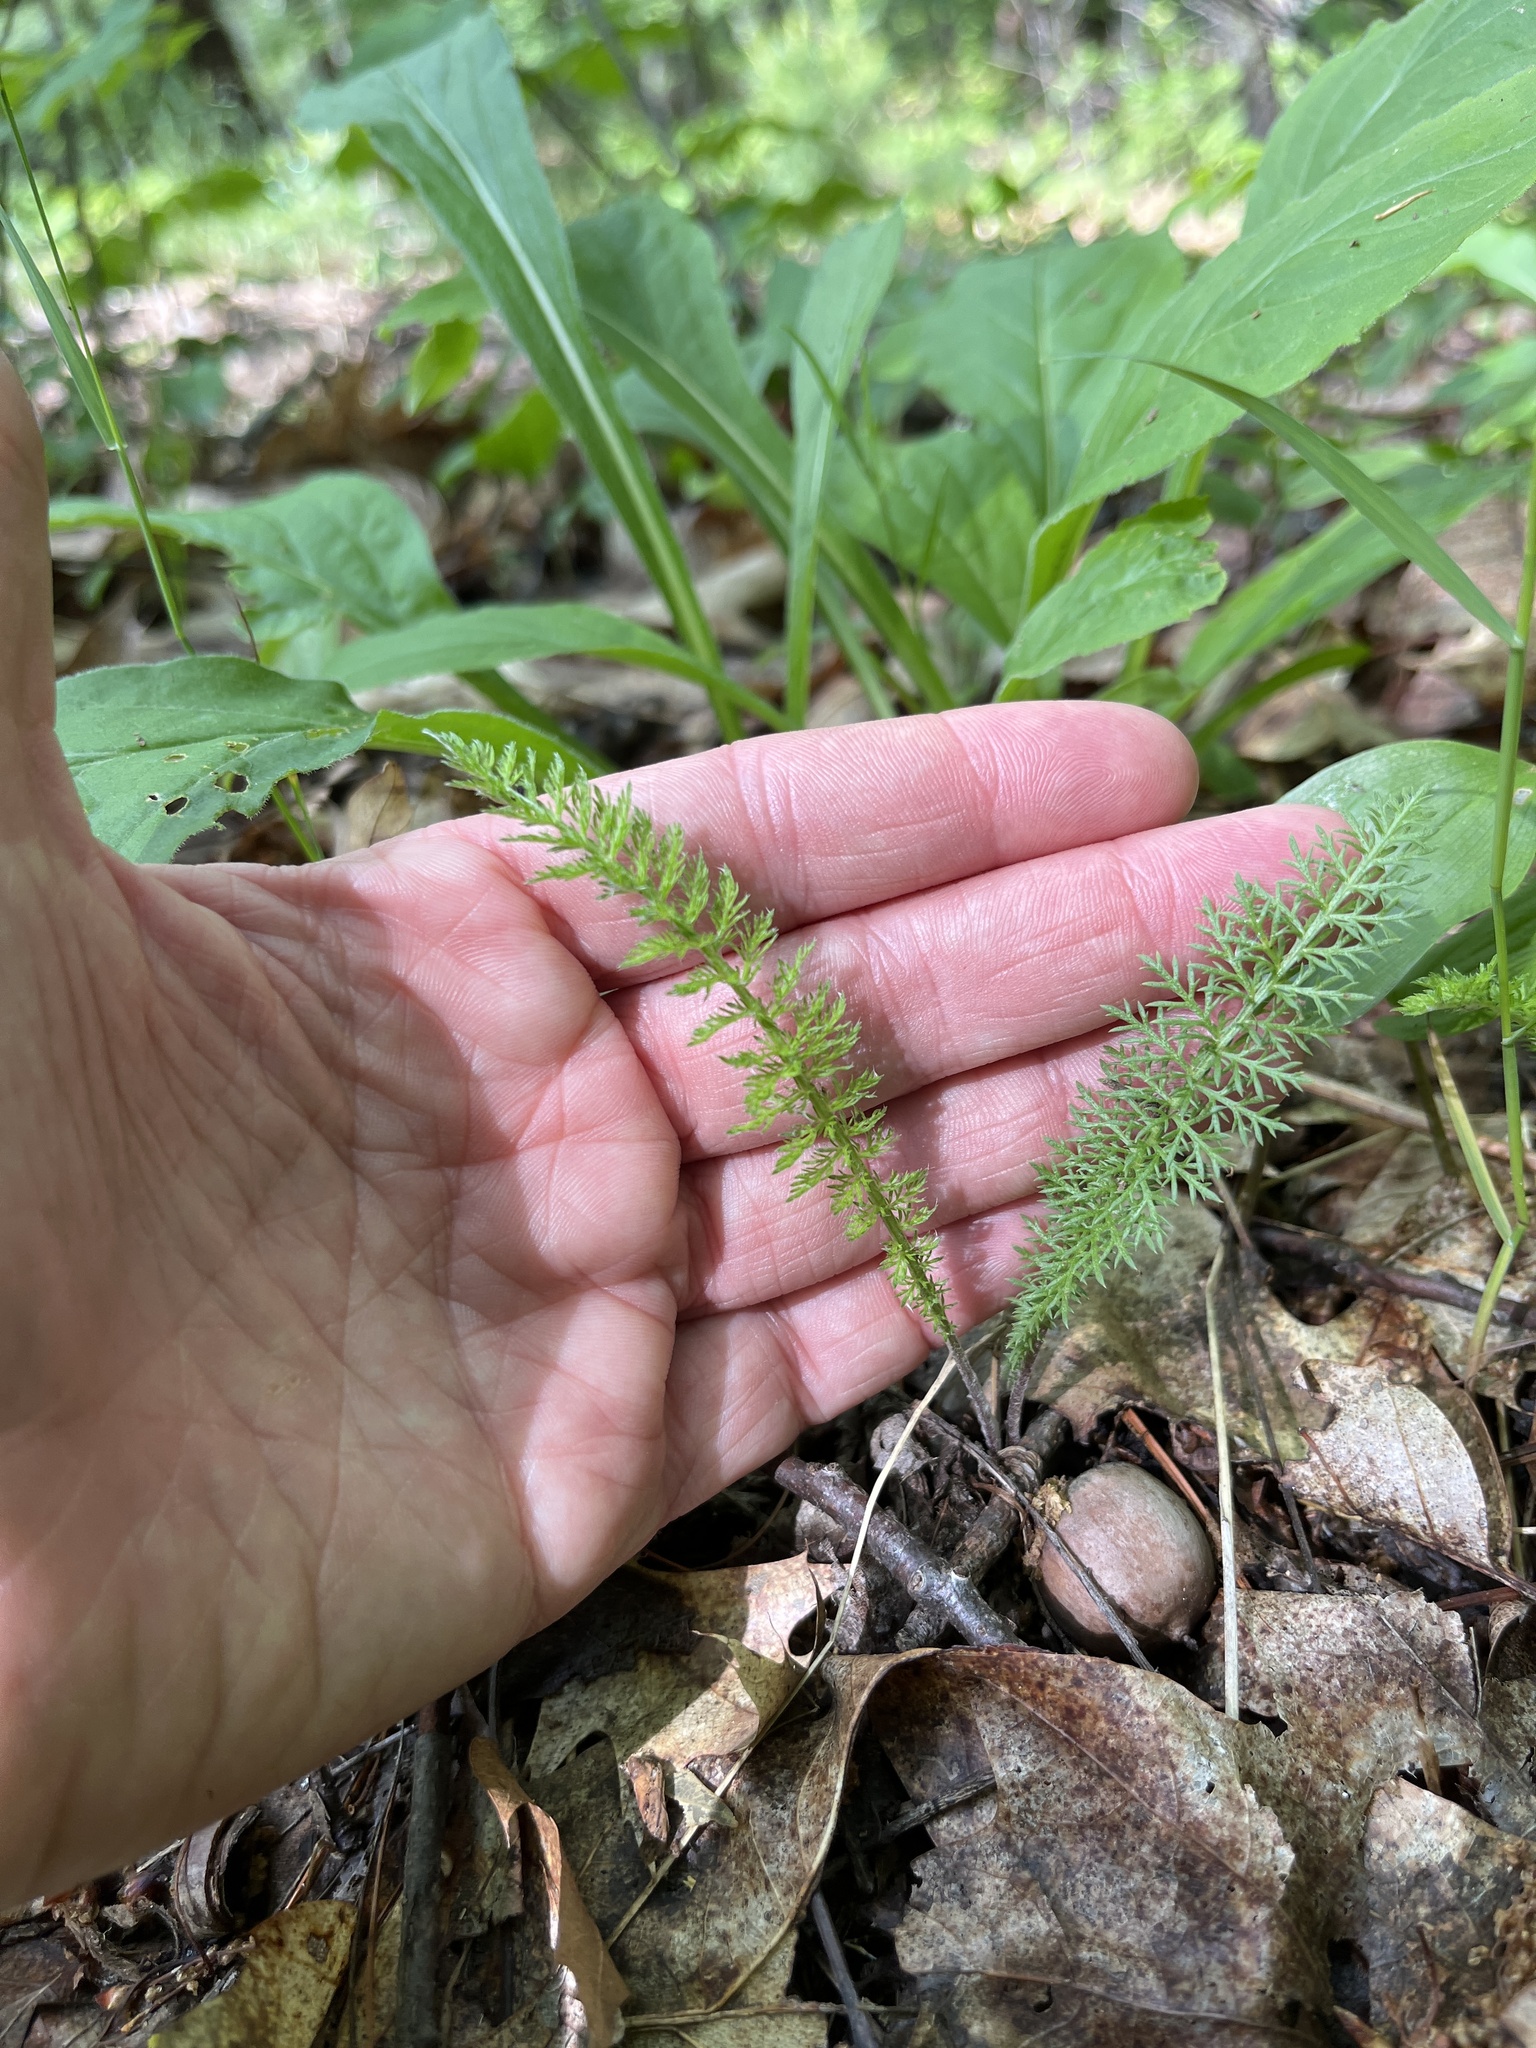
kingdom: Plantae
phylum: Tracheophyta
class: Magnoliopsida
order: Asterales
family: Asteraceae
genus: Achillea
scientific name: Achillea millefolium
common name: Yarrow
